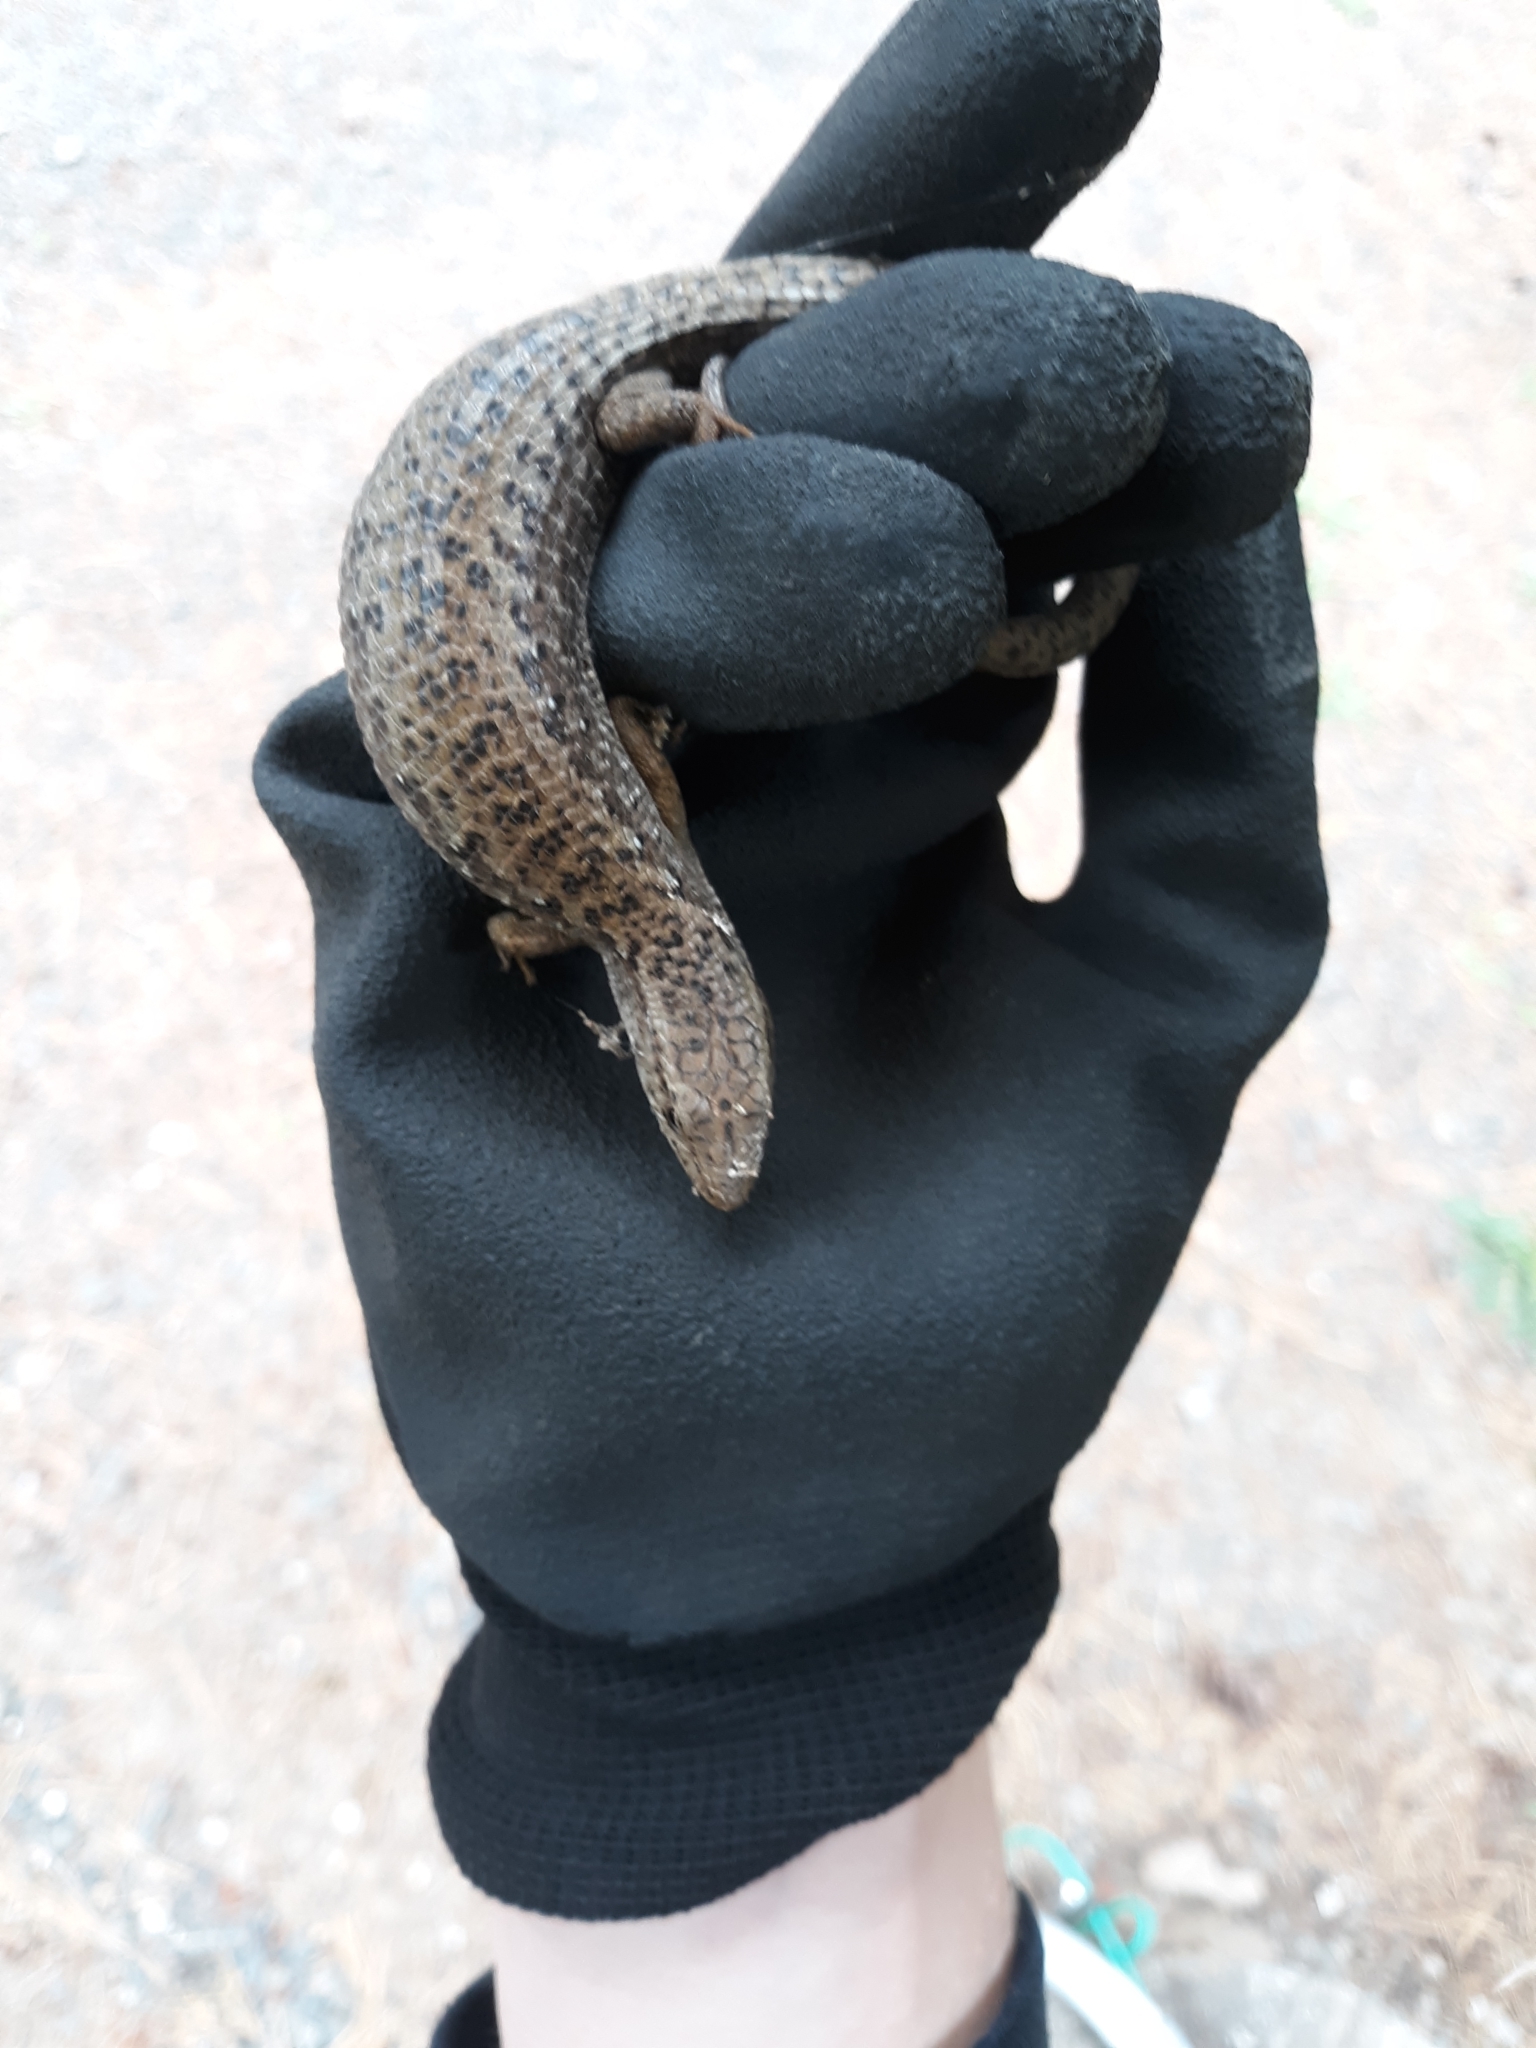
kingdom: Animalia
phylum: Chordata
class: Squamata
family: Anguidae
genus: Elgaria
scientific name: Elgaria coerulea
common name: Northern alligator lizard
